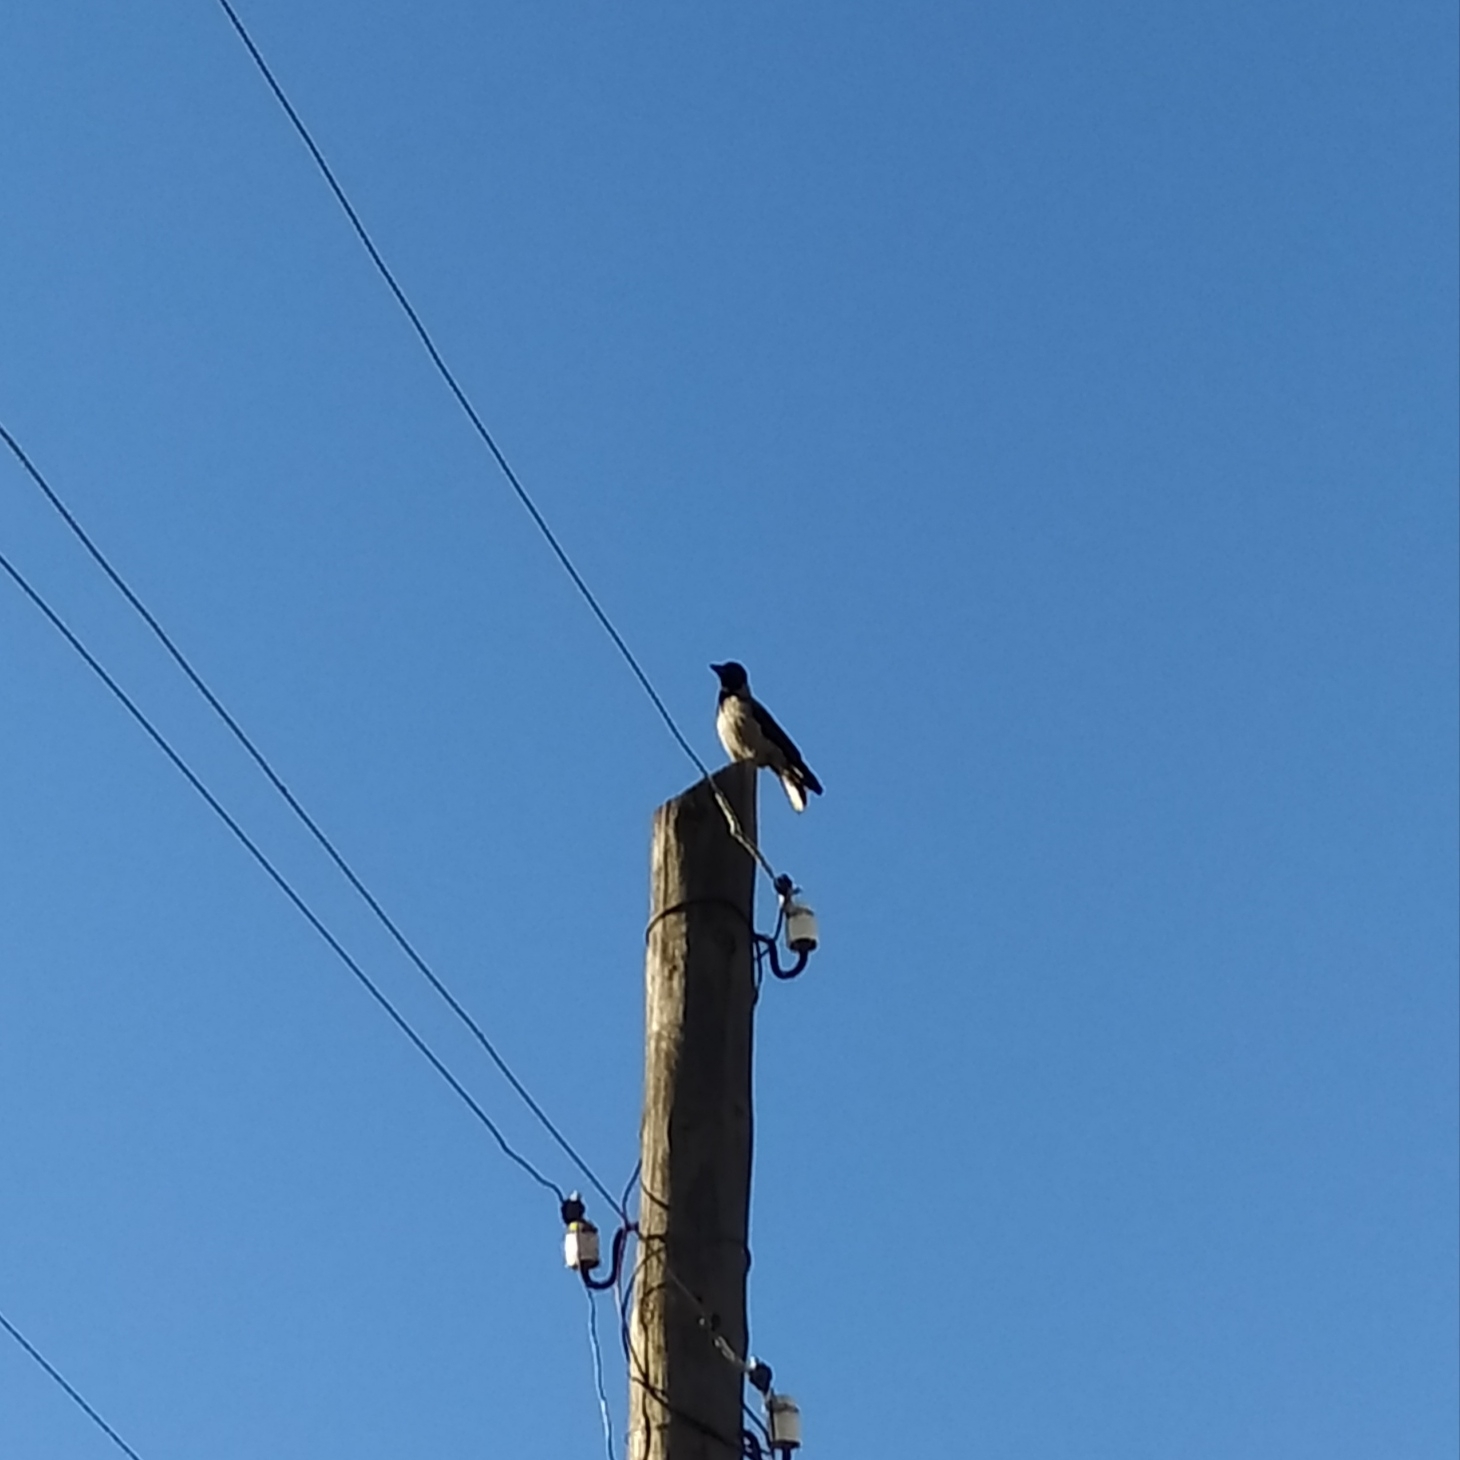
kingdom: Animalia
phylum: Chordata
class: Aves
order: Passeriformes
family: Corvidae
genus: Corvus
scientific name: Corvus cornix
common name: Hooded crow
